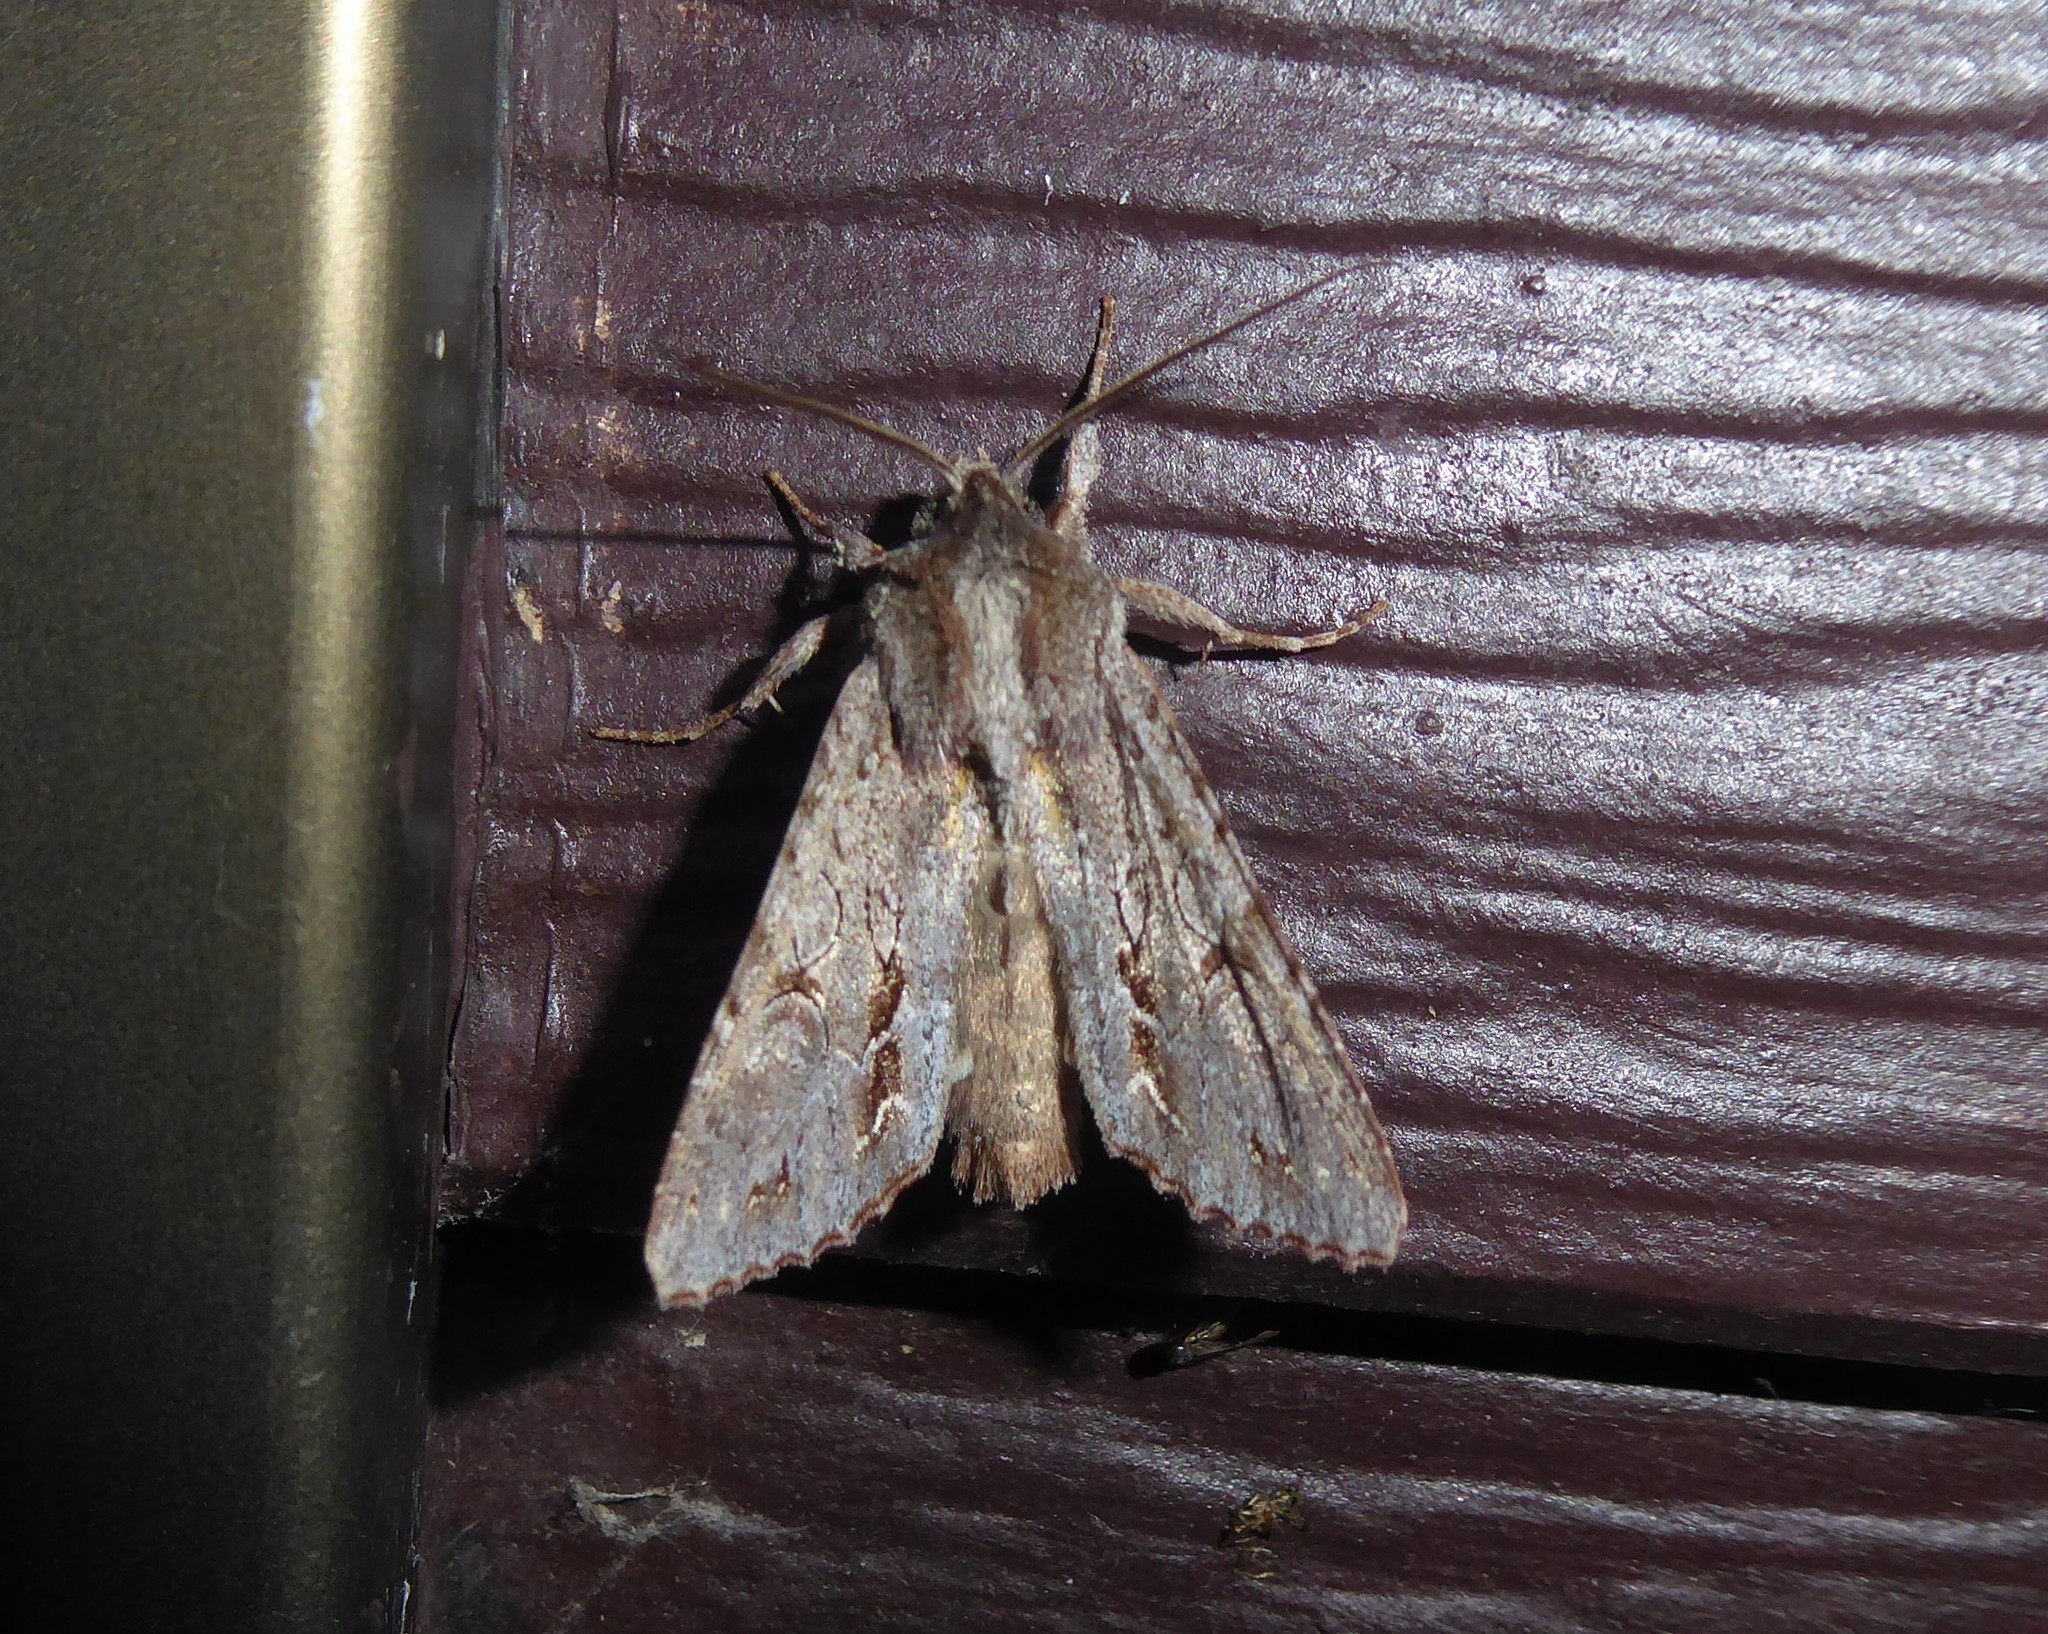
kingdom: Animalia
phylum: Arthropoda
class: Insecta
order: Lepidoptera
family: Noctuidae
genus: Ichneutica
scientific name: Ichneutica
